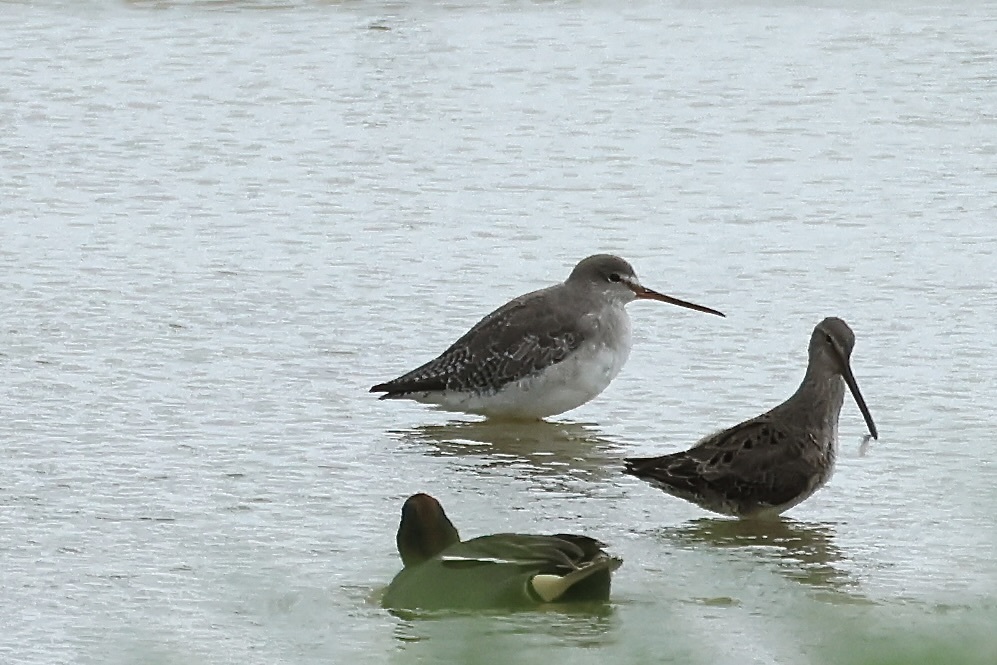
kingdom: Animalia
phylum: Chordata
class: Aves
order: Charadriiformes
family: Scolopacidae
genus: Tringa
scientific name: Tringa erythropus
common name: Spotted redshank
